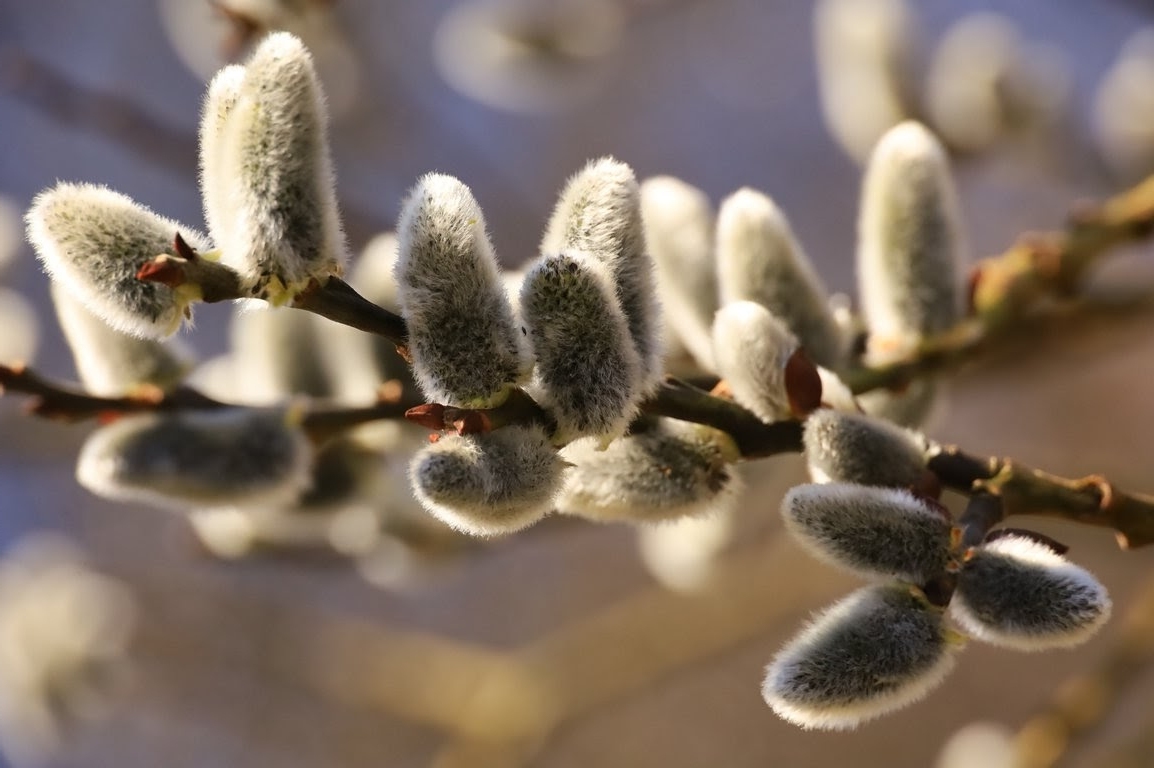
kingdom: Plantae
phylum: Tracheophyta
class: Magnoliopsida
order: Malpighiales
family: Salicaceae
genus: Salix
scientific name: Salix caprea
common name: Goat willow
